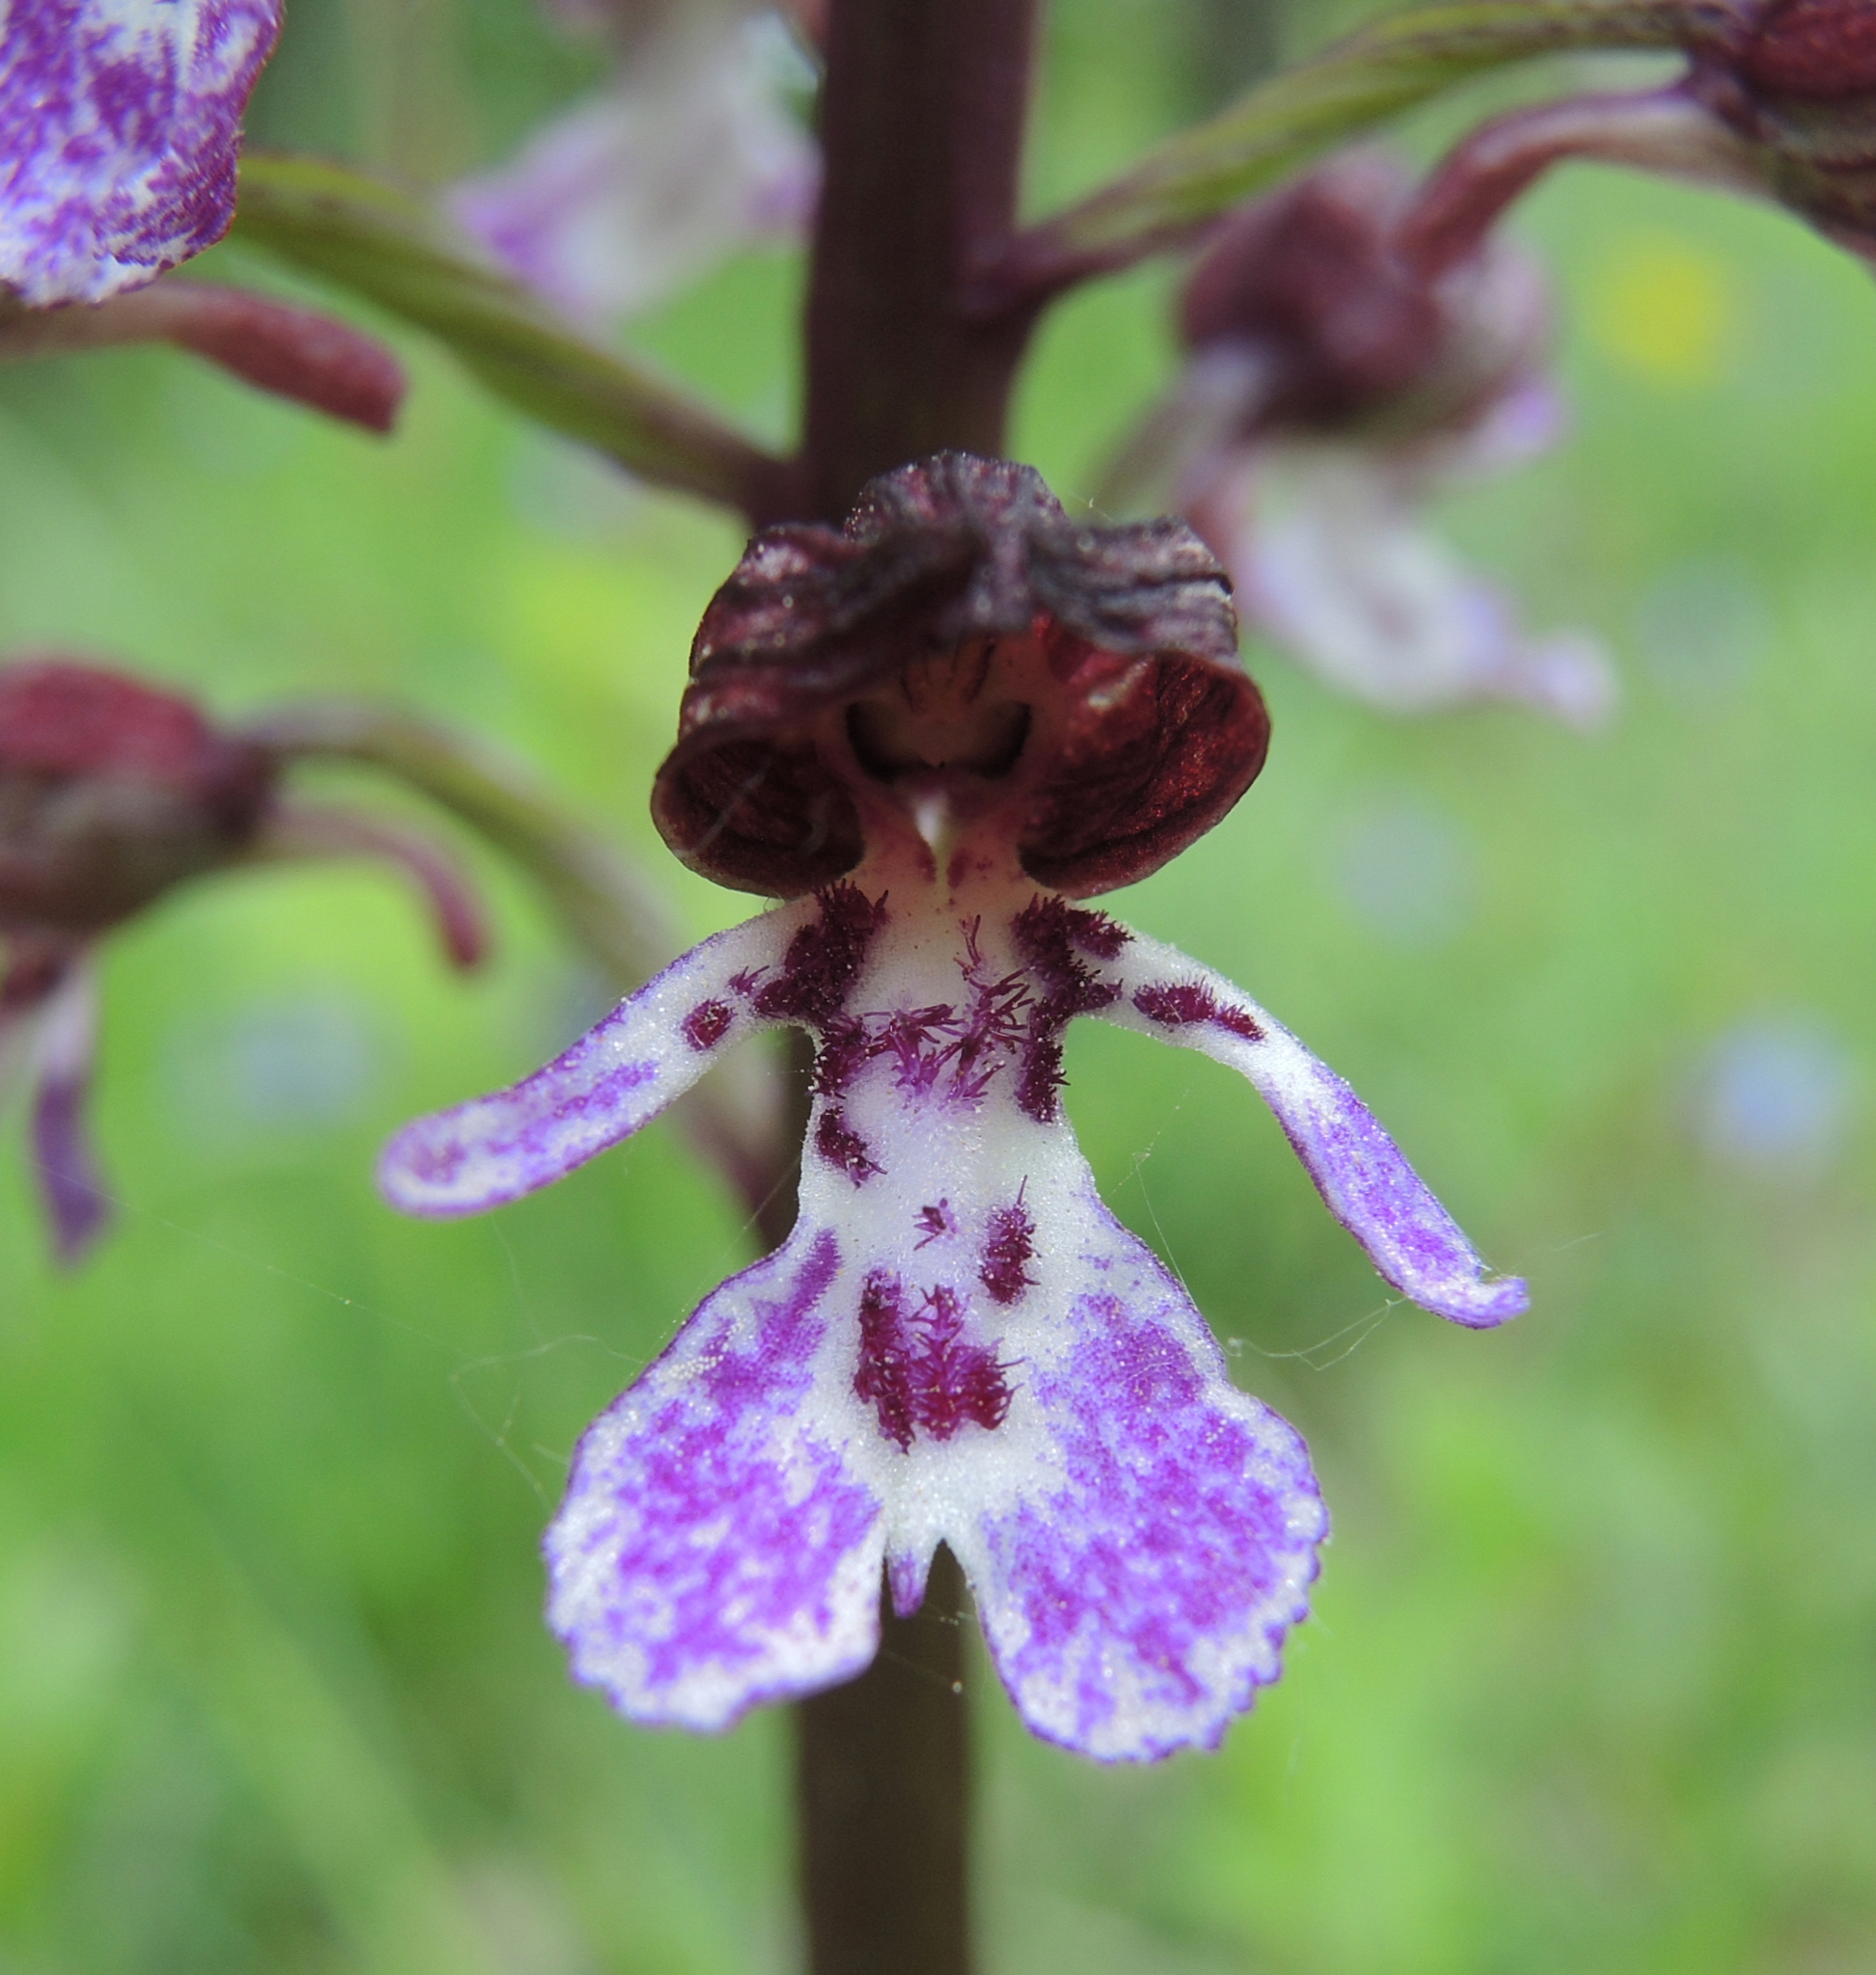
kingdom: Plantae
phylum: Tracheophyta
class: Liliopsida
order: Asparagales
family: Orchidaceae
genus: Orchis
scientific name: Orchis purpurea
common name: Lady orchid
